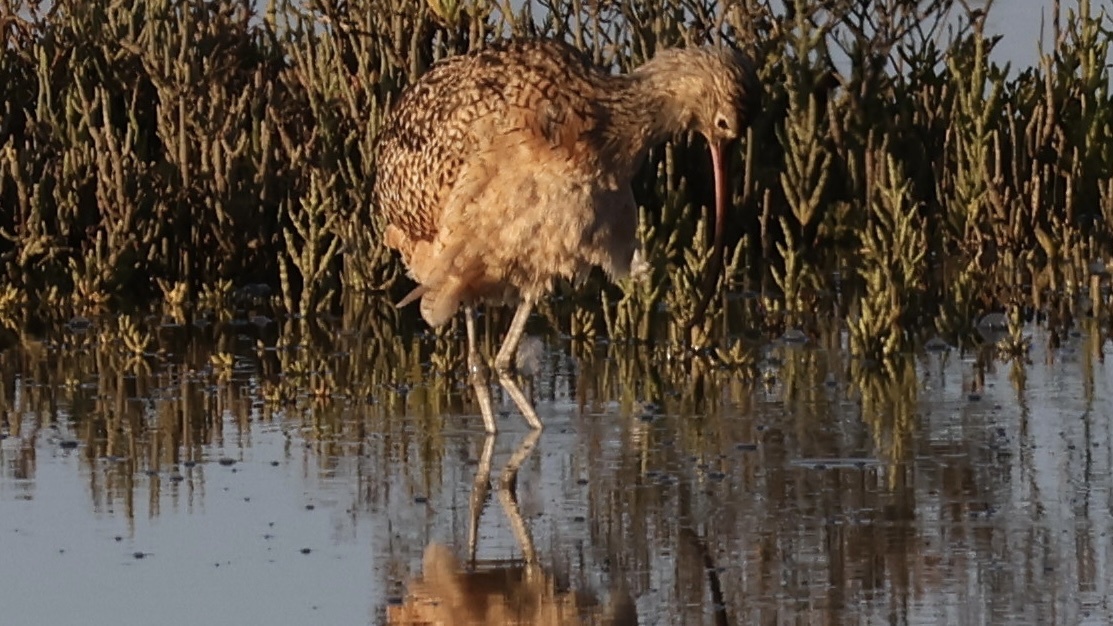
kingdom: Animalia
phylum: Chordata
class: Aves
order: Charadriiformes
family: Scolopacidae
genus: Numenius
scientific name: Numenius americanus
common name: Long-billed curlew
